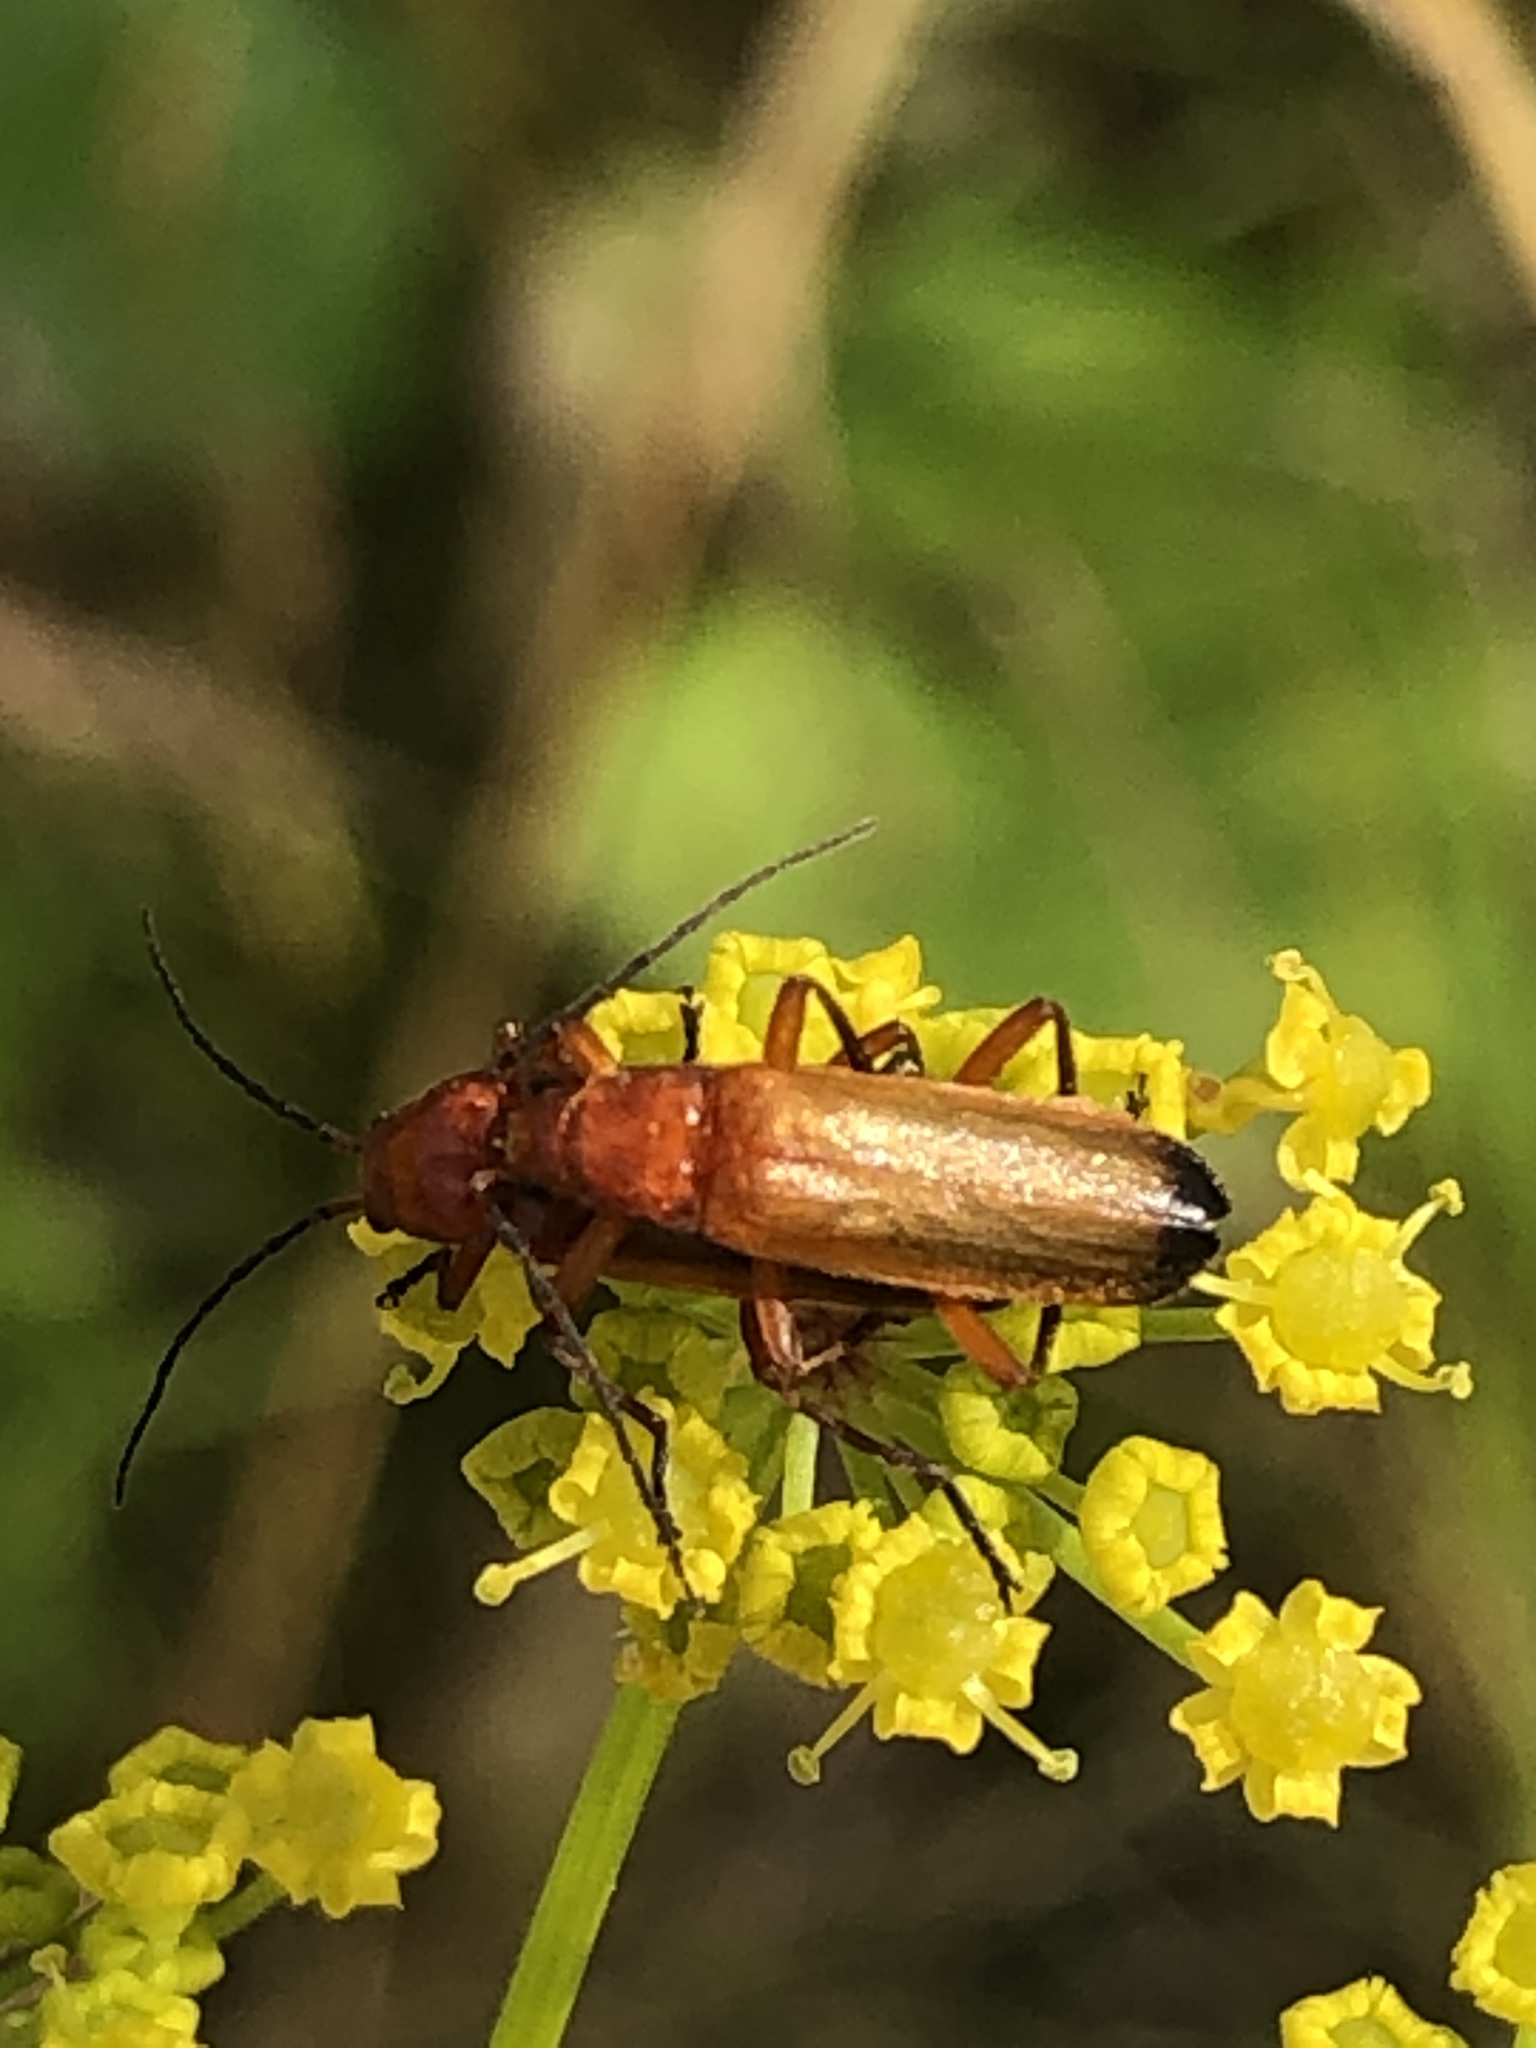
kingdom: Animalia
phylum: Arthropoda
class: Insecta
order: Coleoptera
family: Cantharidae
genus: Rhagonycha
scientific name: Rhagonycha fulva
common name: Common red soldier beetle
